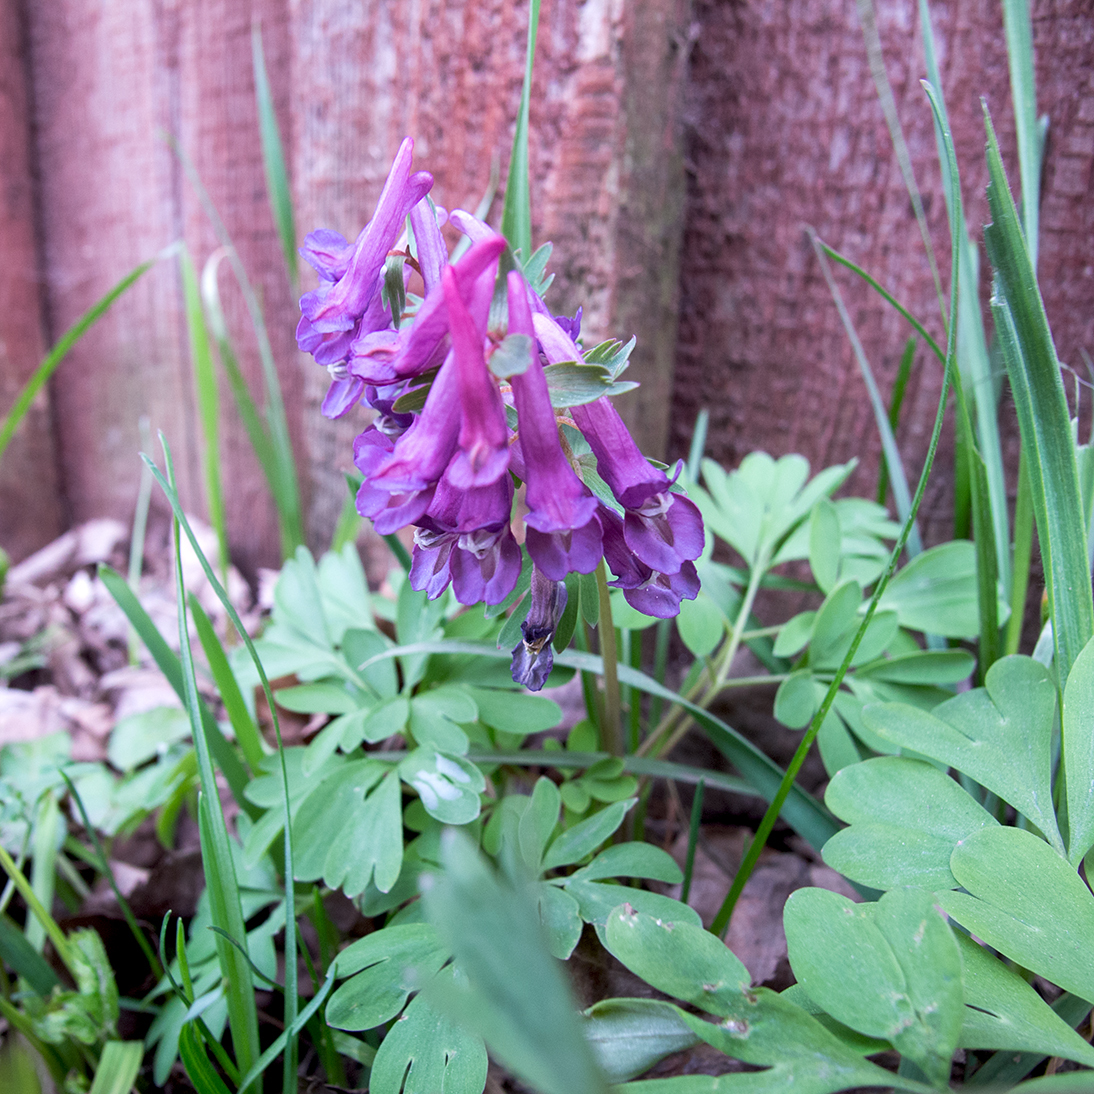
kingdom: Plantae
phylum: Tracheophyta
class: Magnoliopsida
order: Ranunculales
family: Papaveraceae
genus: Corydalis
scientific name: Corydalis solida
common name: Bird-in-a-bush
